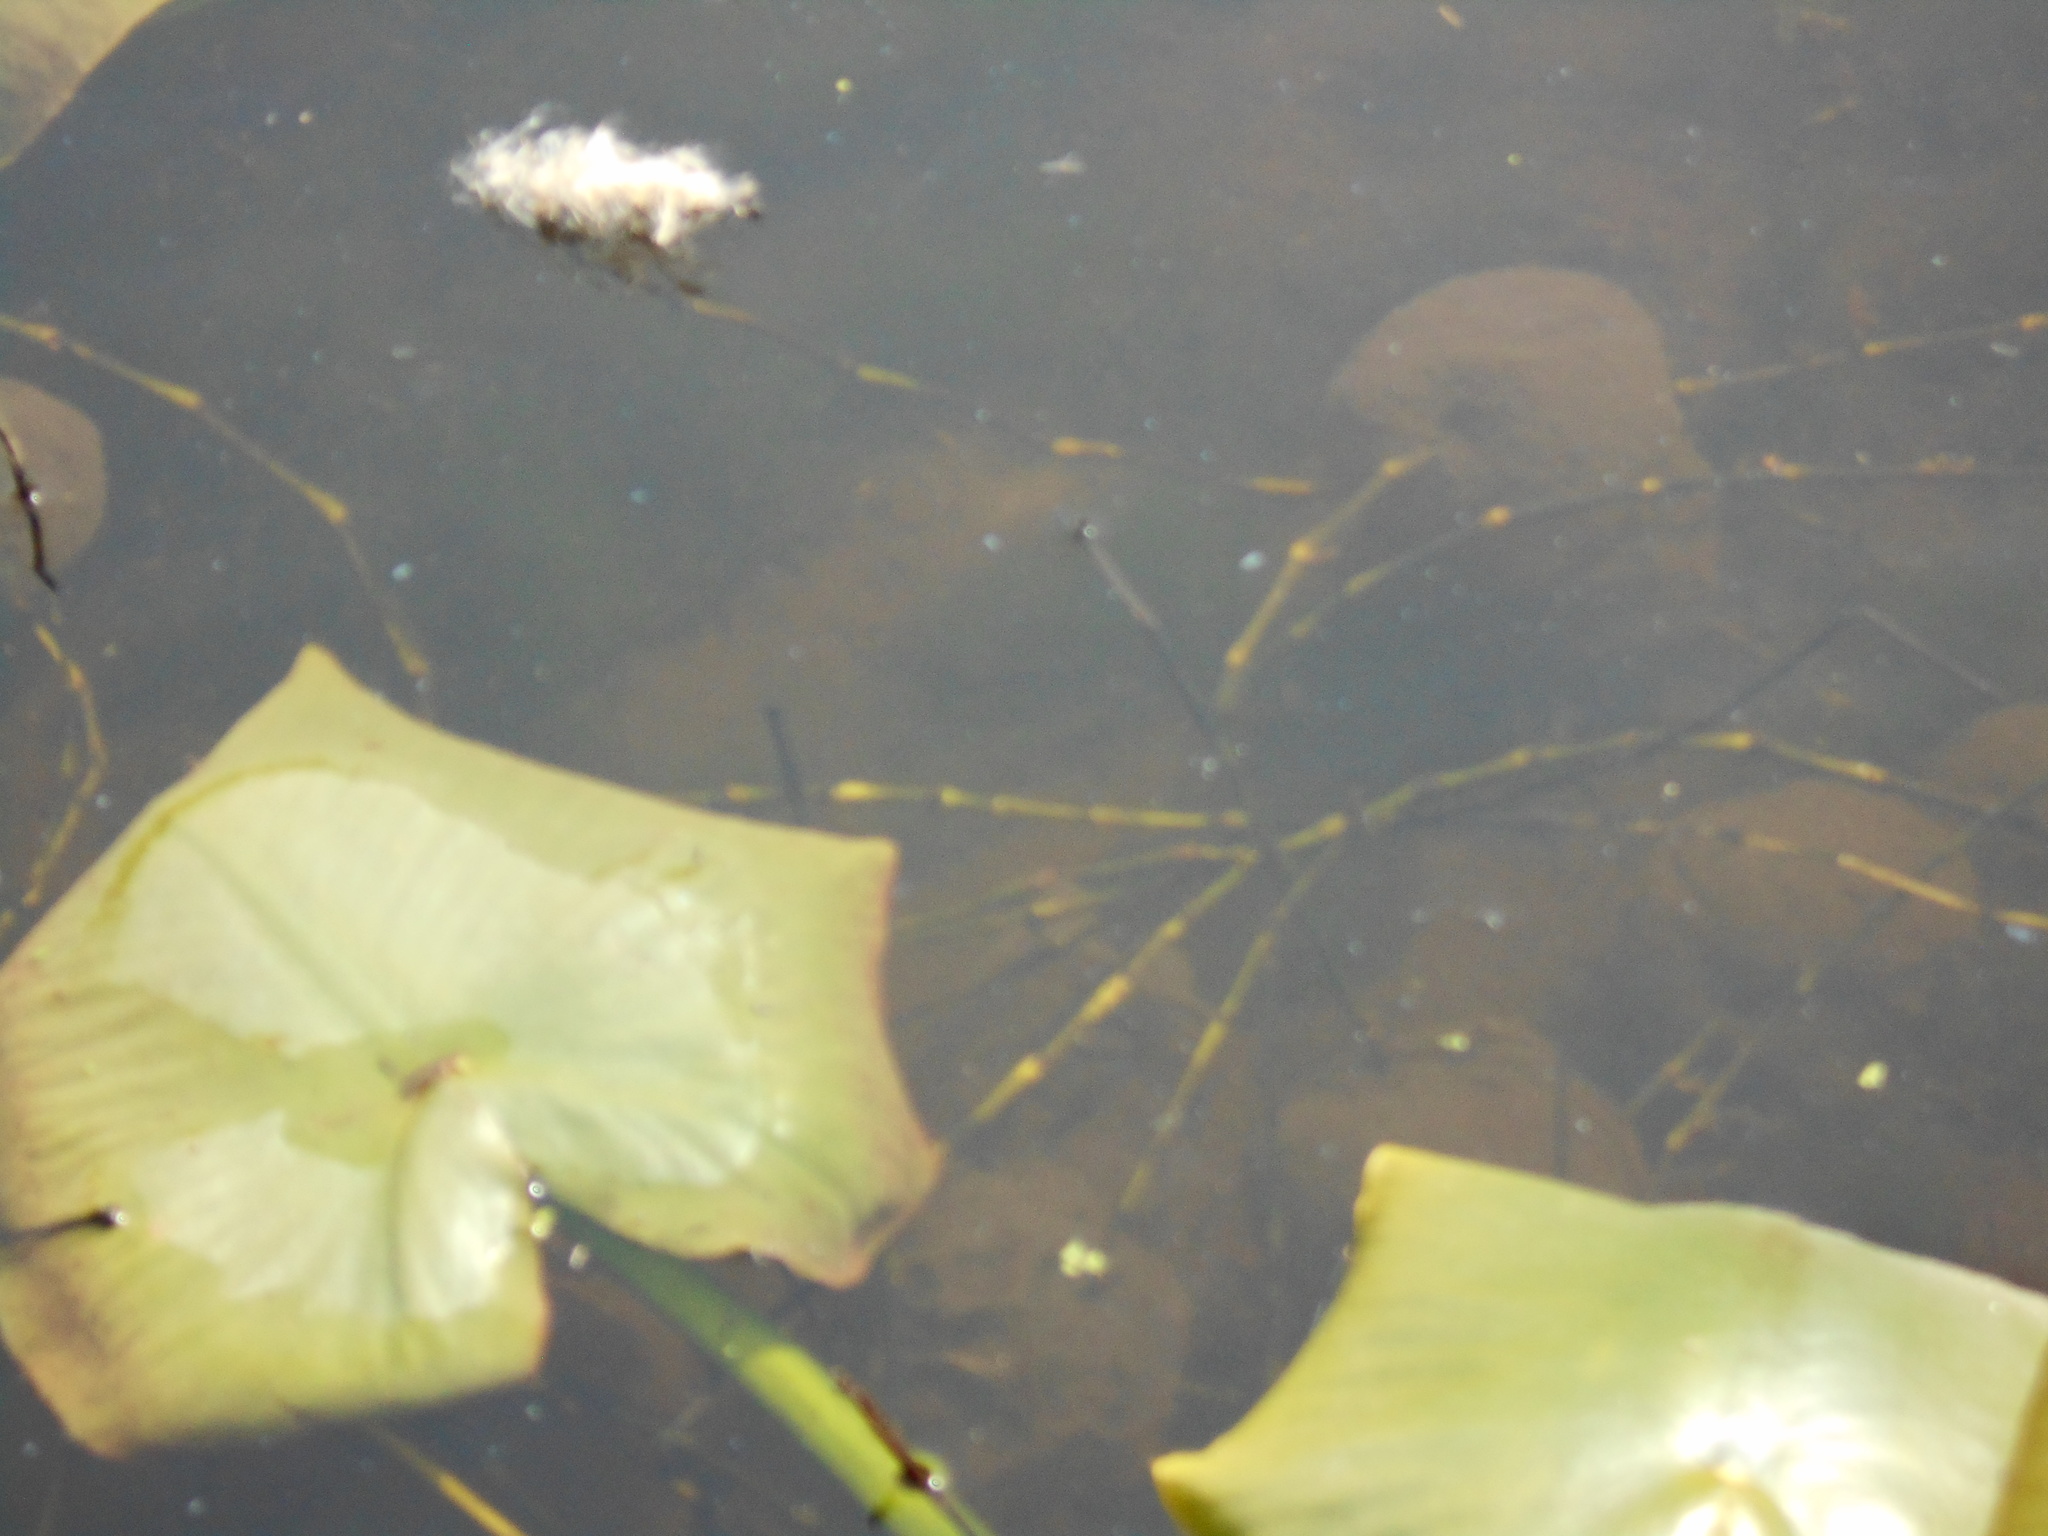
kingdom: Animalia
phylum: Chordata
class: Amphibia
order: Caudata
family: Ambystomatidae
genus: Ambystoma
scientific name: Ambystoma gracile
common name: Northwestern salamander
